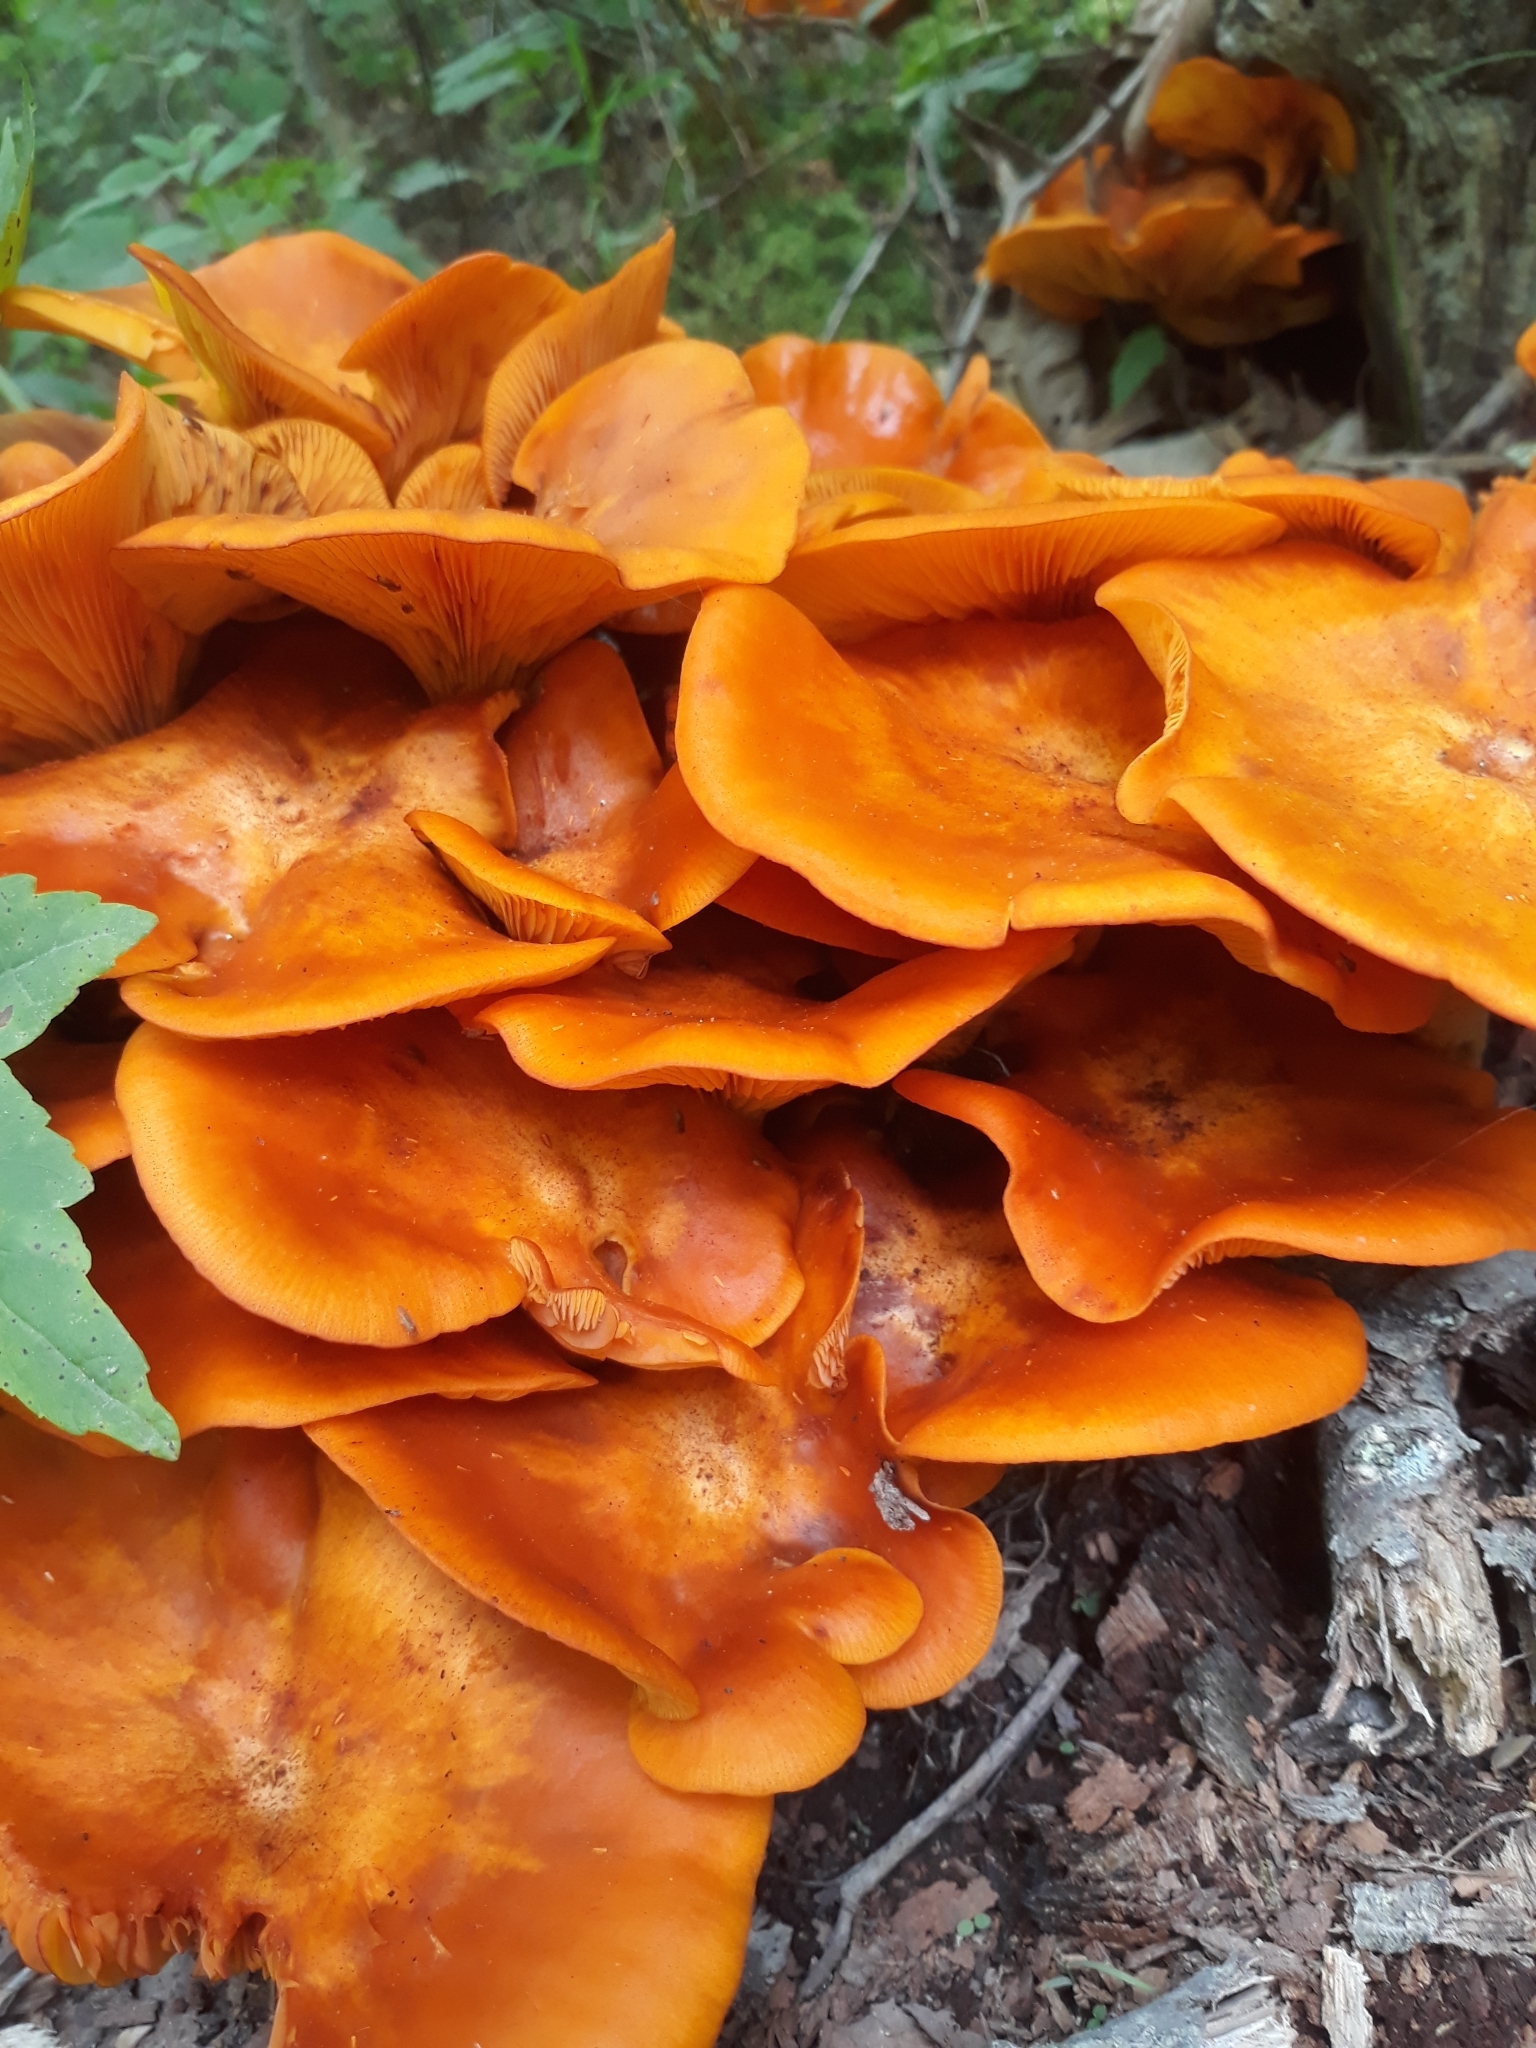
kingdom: Fungi
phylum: Basidiomycota
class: Agaricomycetes
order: Agaricales
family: Omphalotaceae
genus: Omphalotus
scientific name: Omphalotus illudens
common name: Jack o lantern
